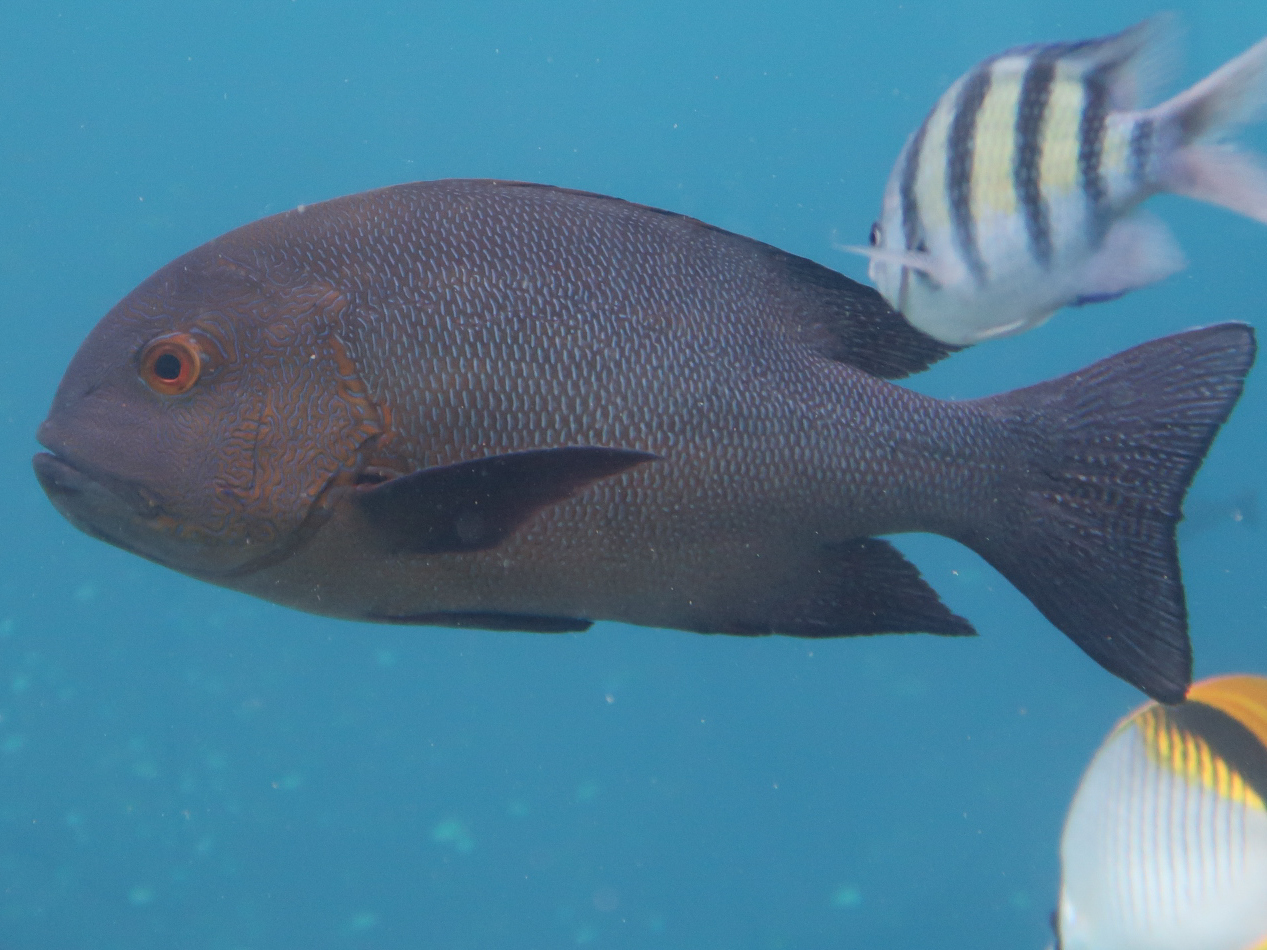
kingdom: Animalia
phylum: Chordata
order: Perciformes
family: Lutjanidae
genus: Macolor
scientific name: Macolor macularis
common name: Midnight snapper
